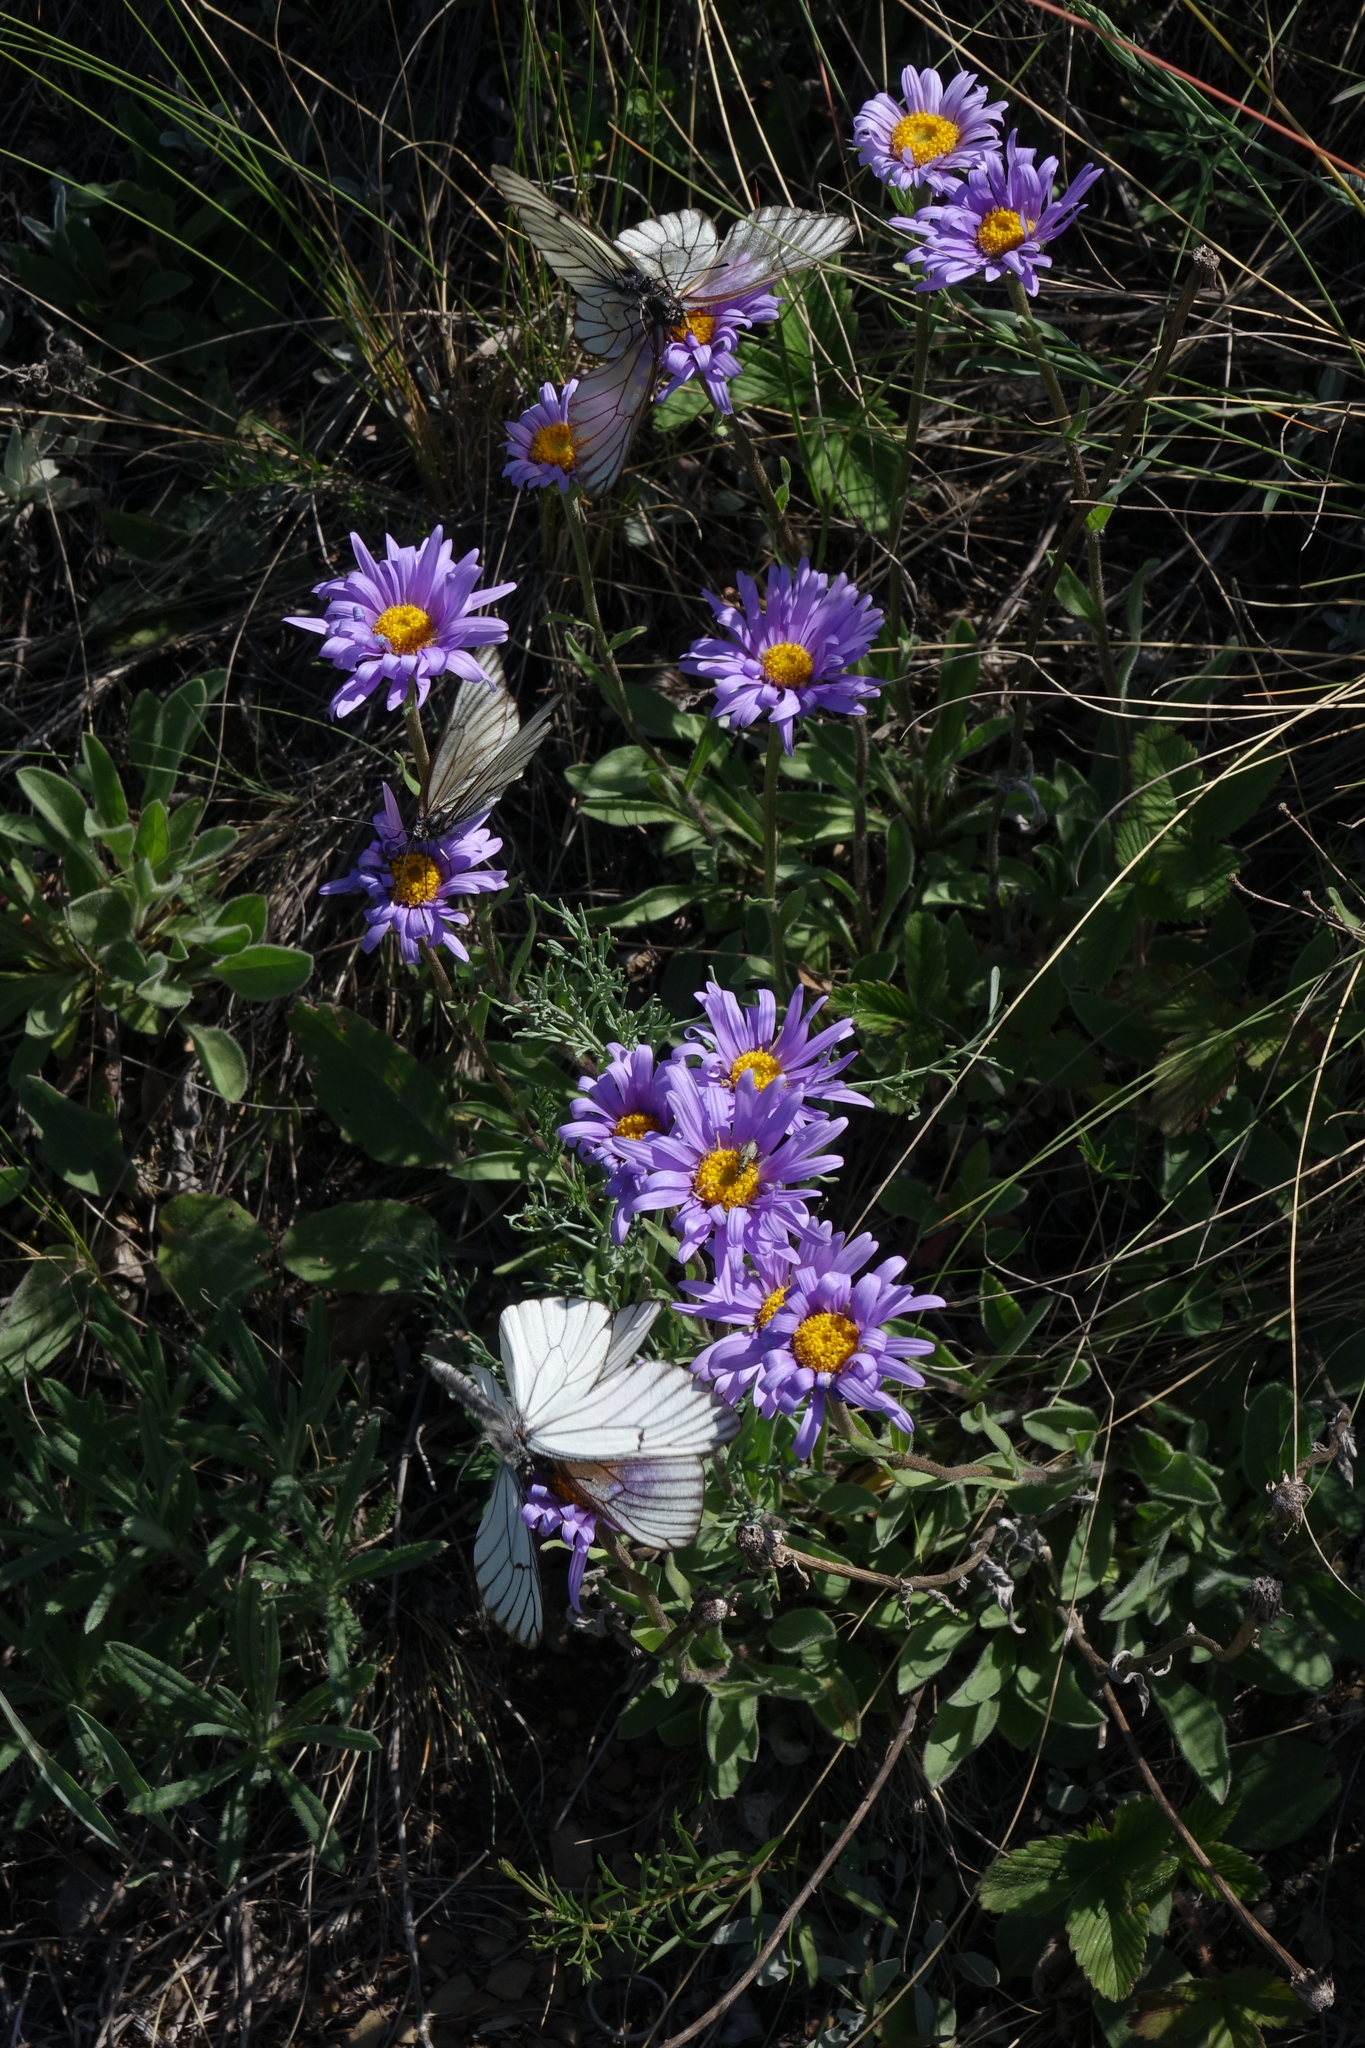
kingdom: Animalia
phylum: Arthropoda
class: Insecta
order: Lepidoptera
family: Pieridae
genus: Aporia
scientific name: Aporia crataegi
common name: Black-veined white
